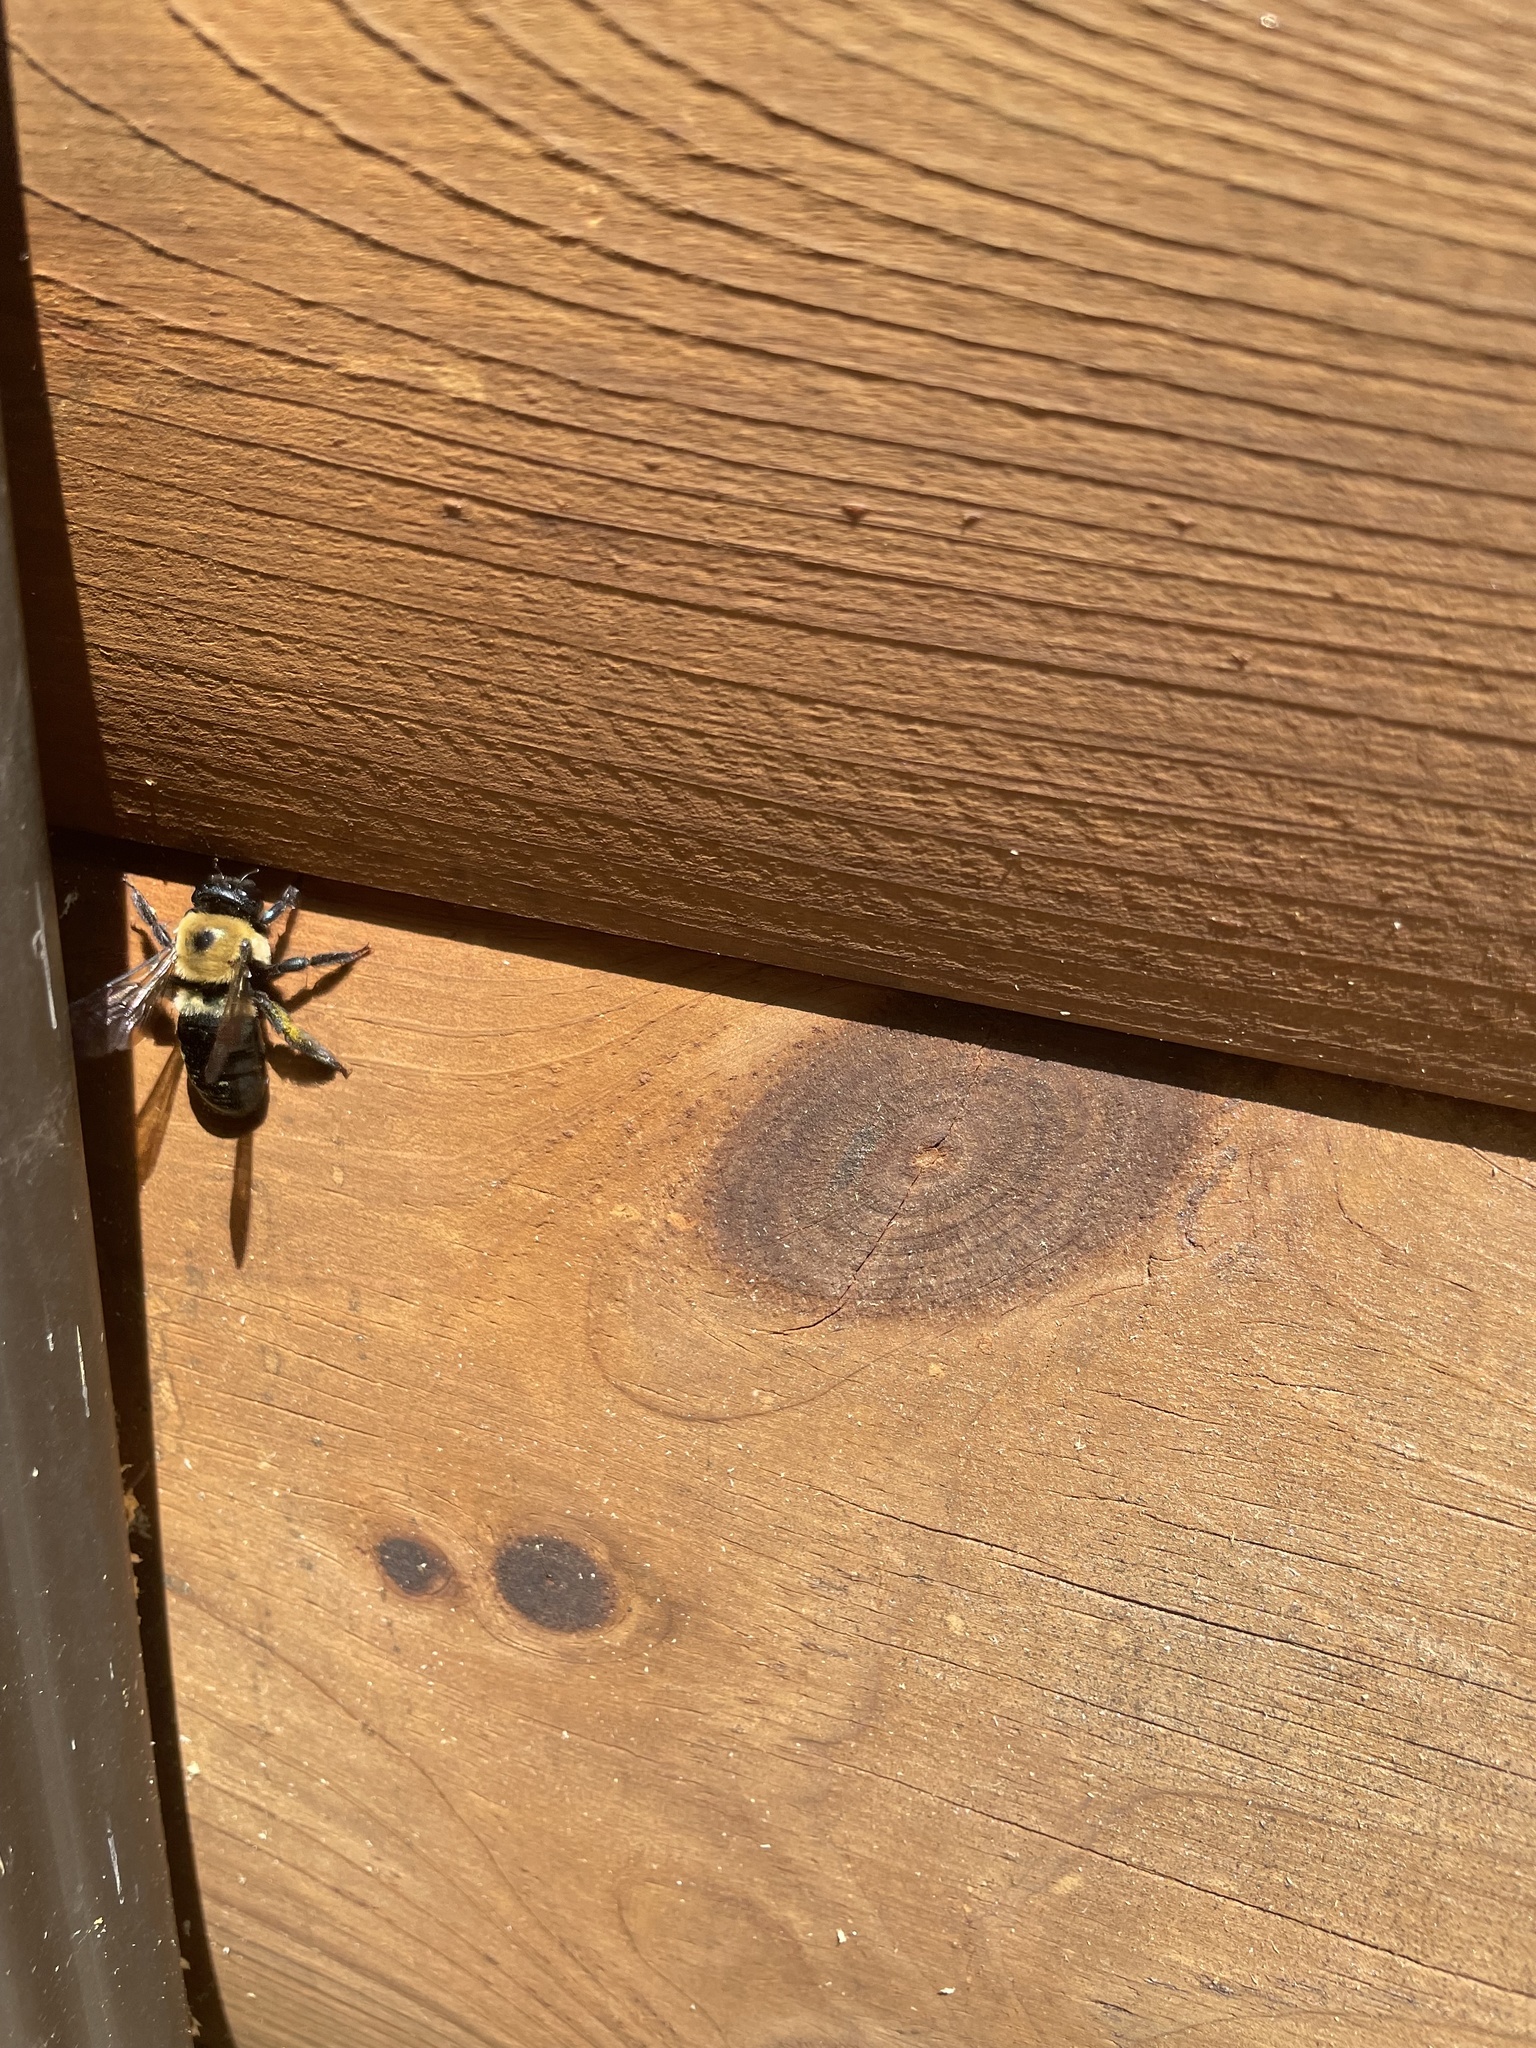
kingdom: Animalia
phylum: Arthropoda
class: Insecta
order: Hymenoptera
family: Apidae
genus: Xylocopa
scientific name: Xylocopa virginica
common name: Carpenter bee
